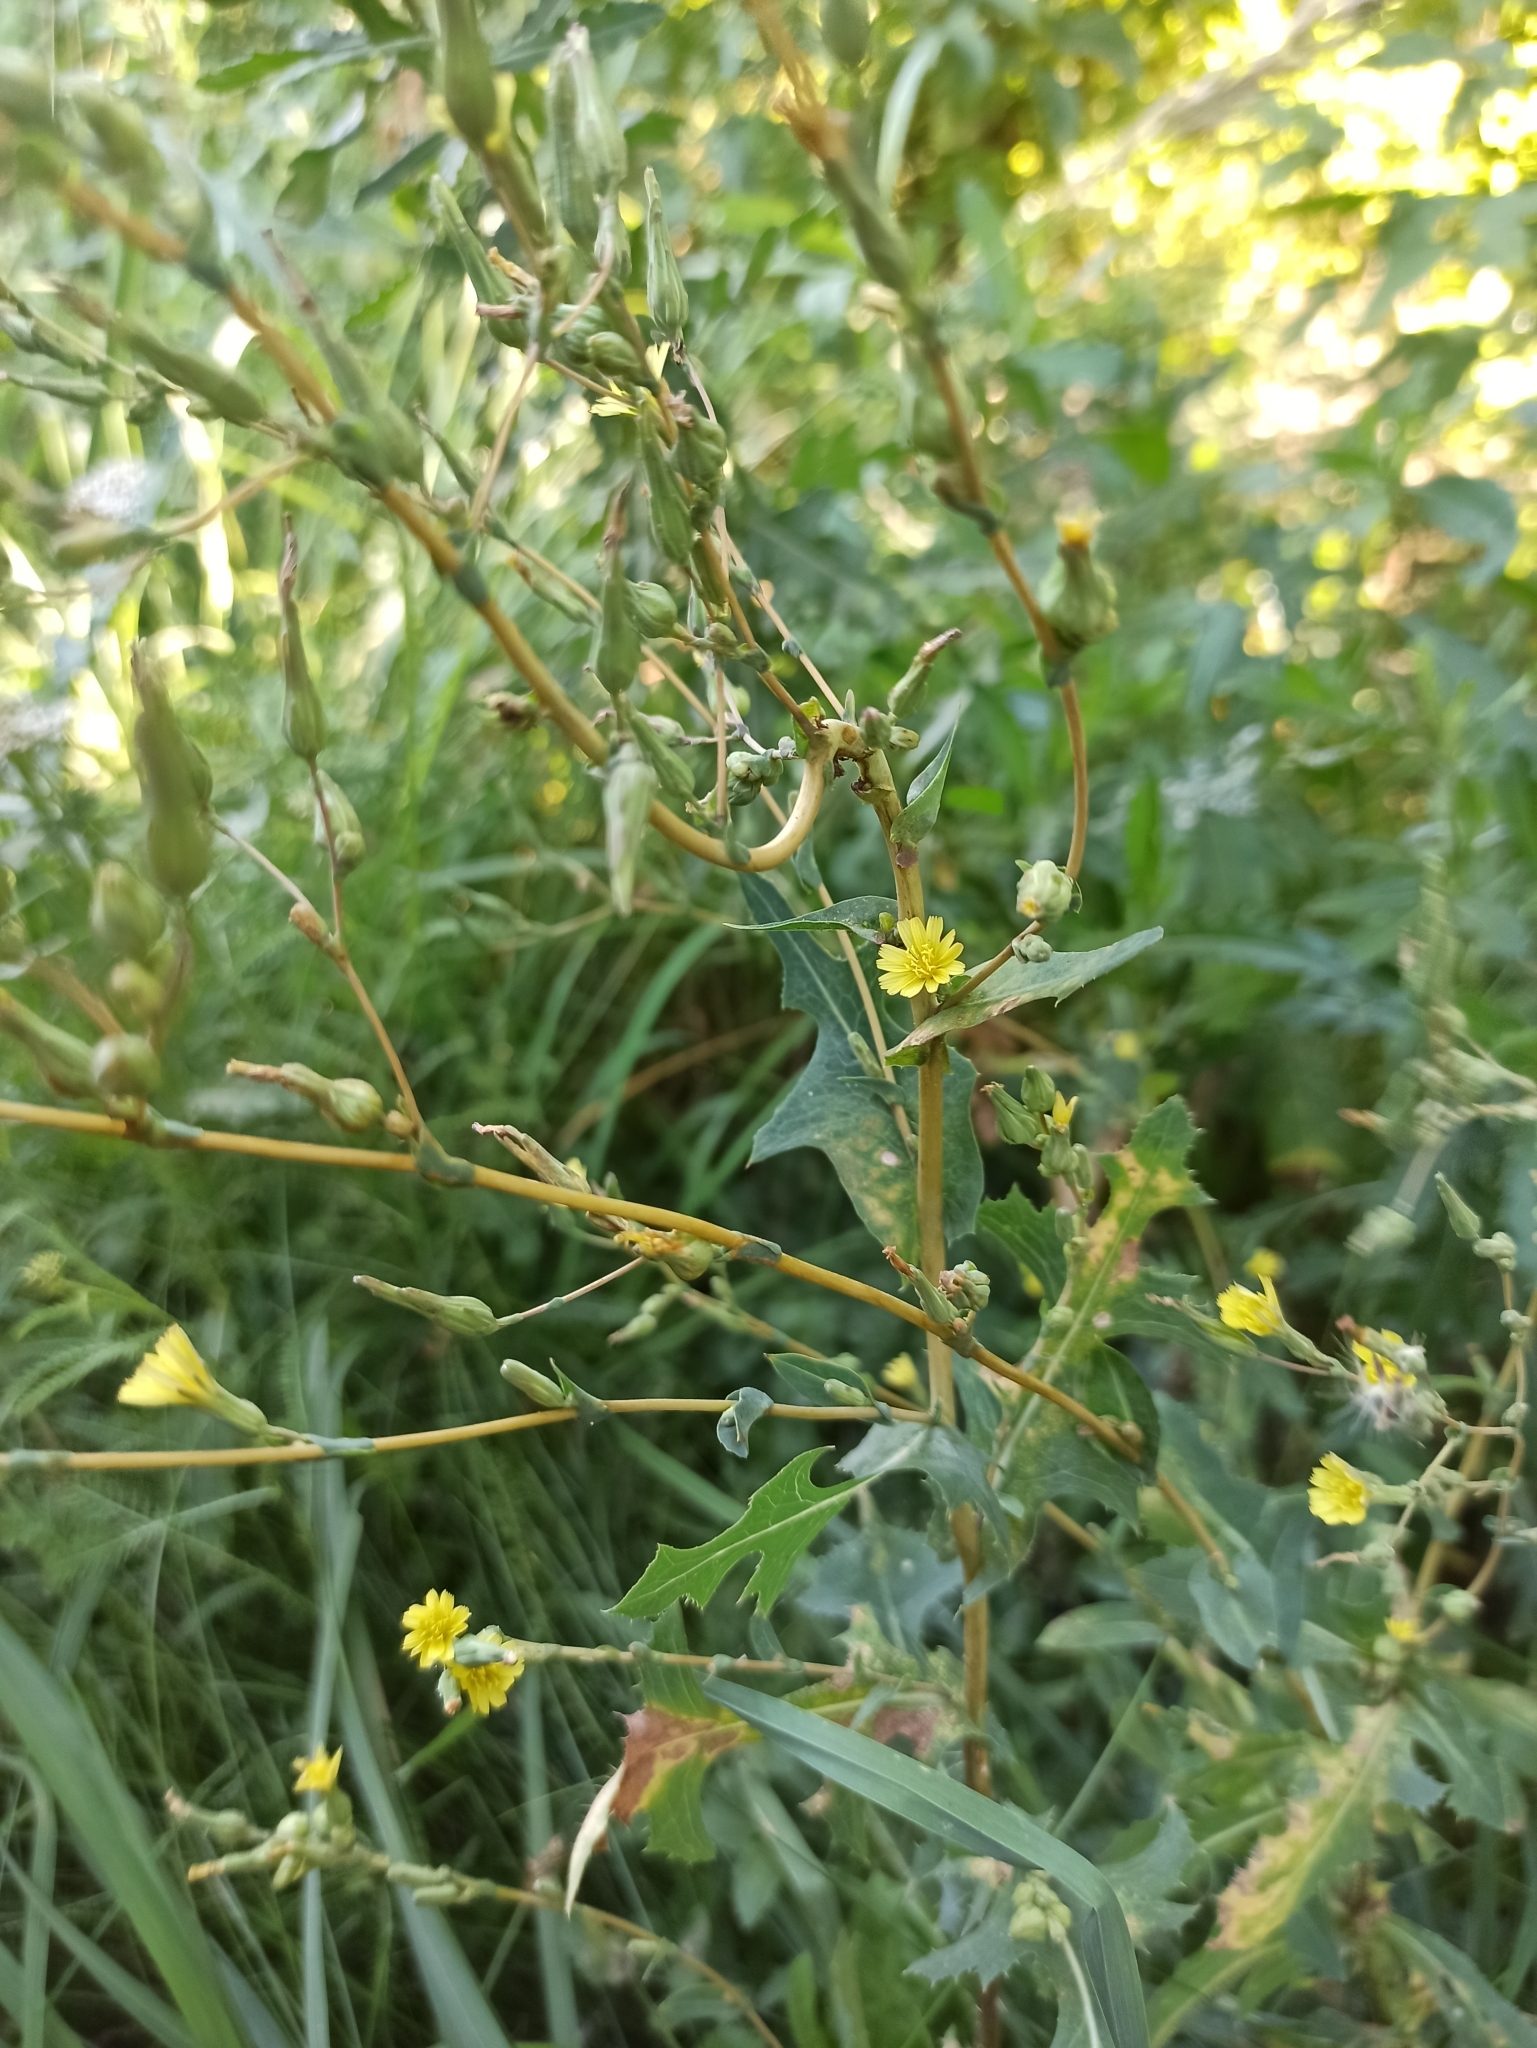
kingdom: Plantae
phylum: Tracheophyta
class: Magnoliopsida
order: Asterales
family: Asteraceae
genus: Lactuca
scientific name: Lactuca serriola
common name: Prickly lettuce
